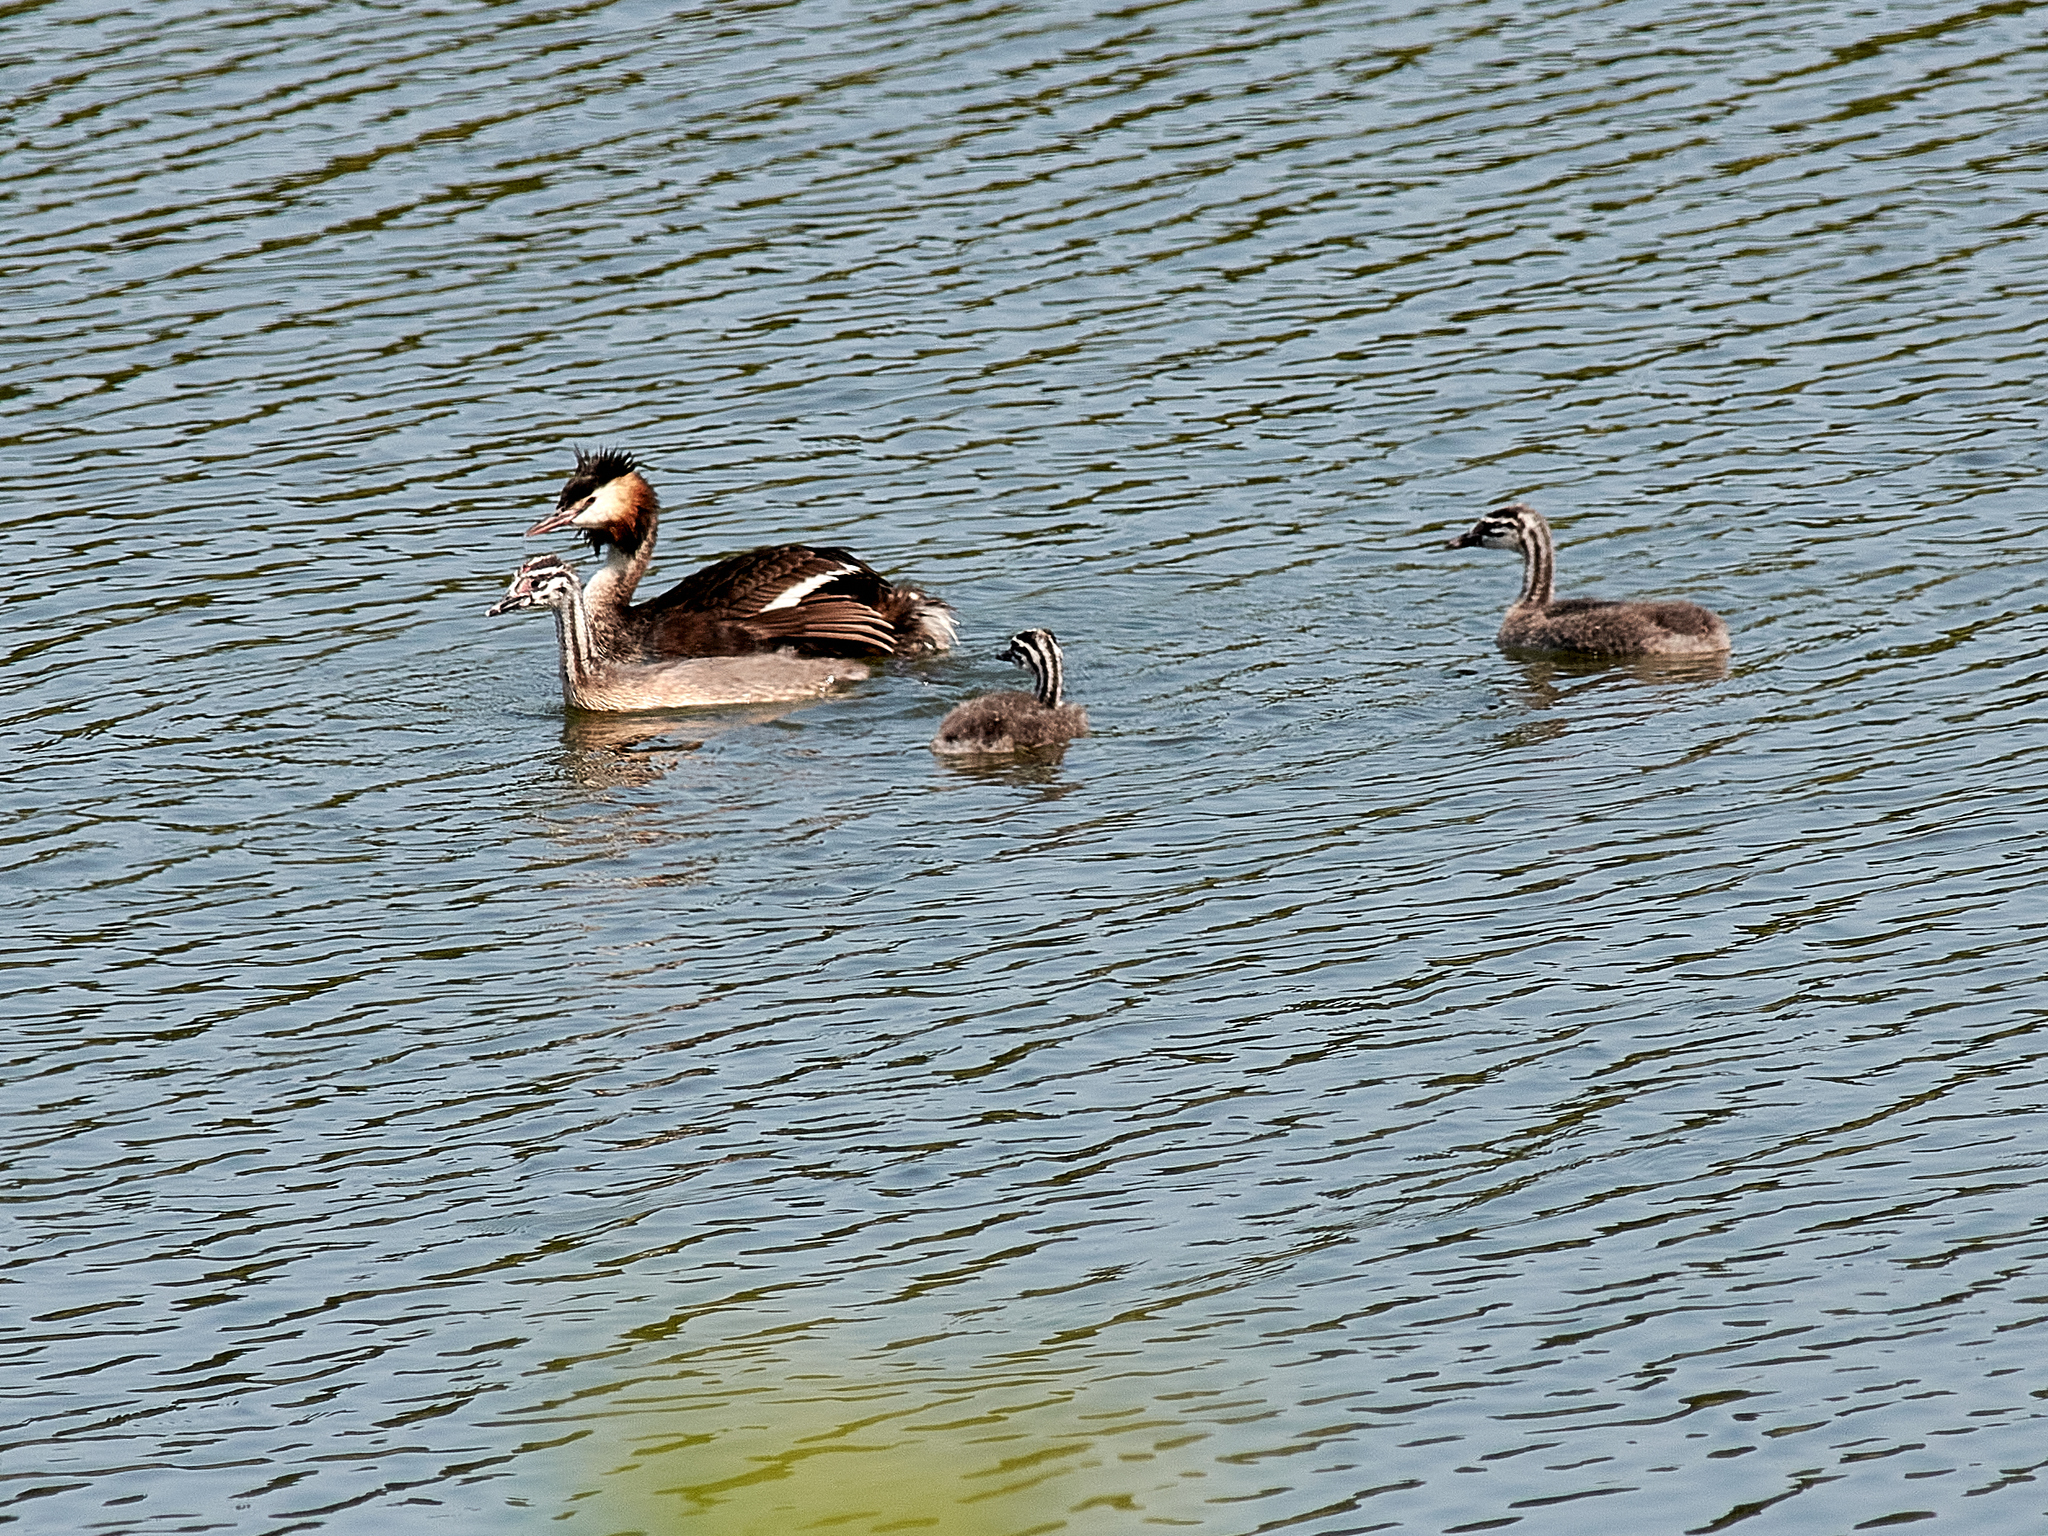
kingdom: Animalia
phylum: Chordata
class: Aves
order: Podicipediformes
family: Podicipedidae
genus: Podiceps
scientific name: Podiceps cristatus
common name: Great crested grebe
